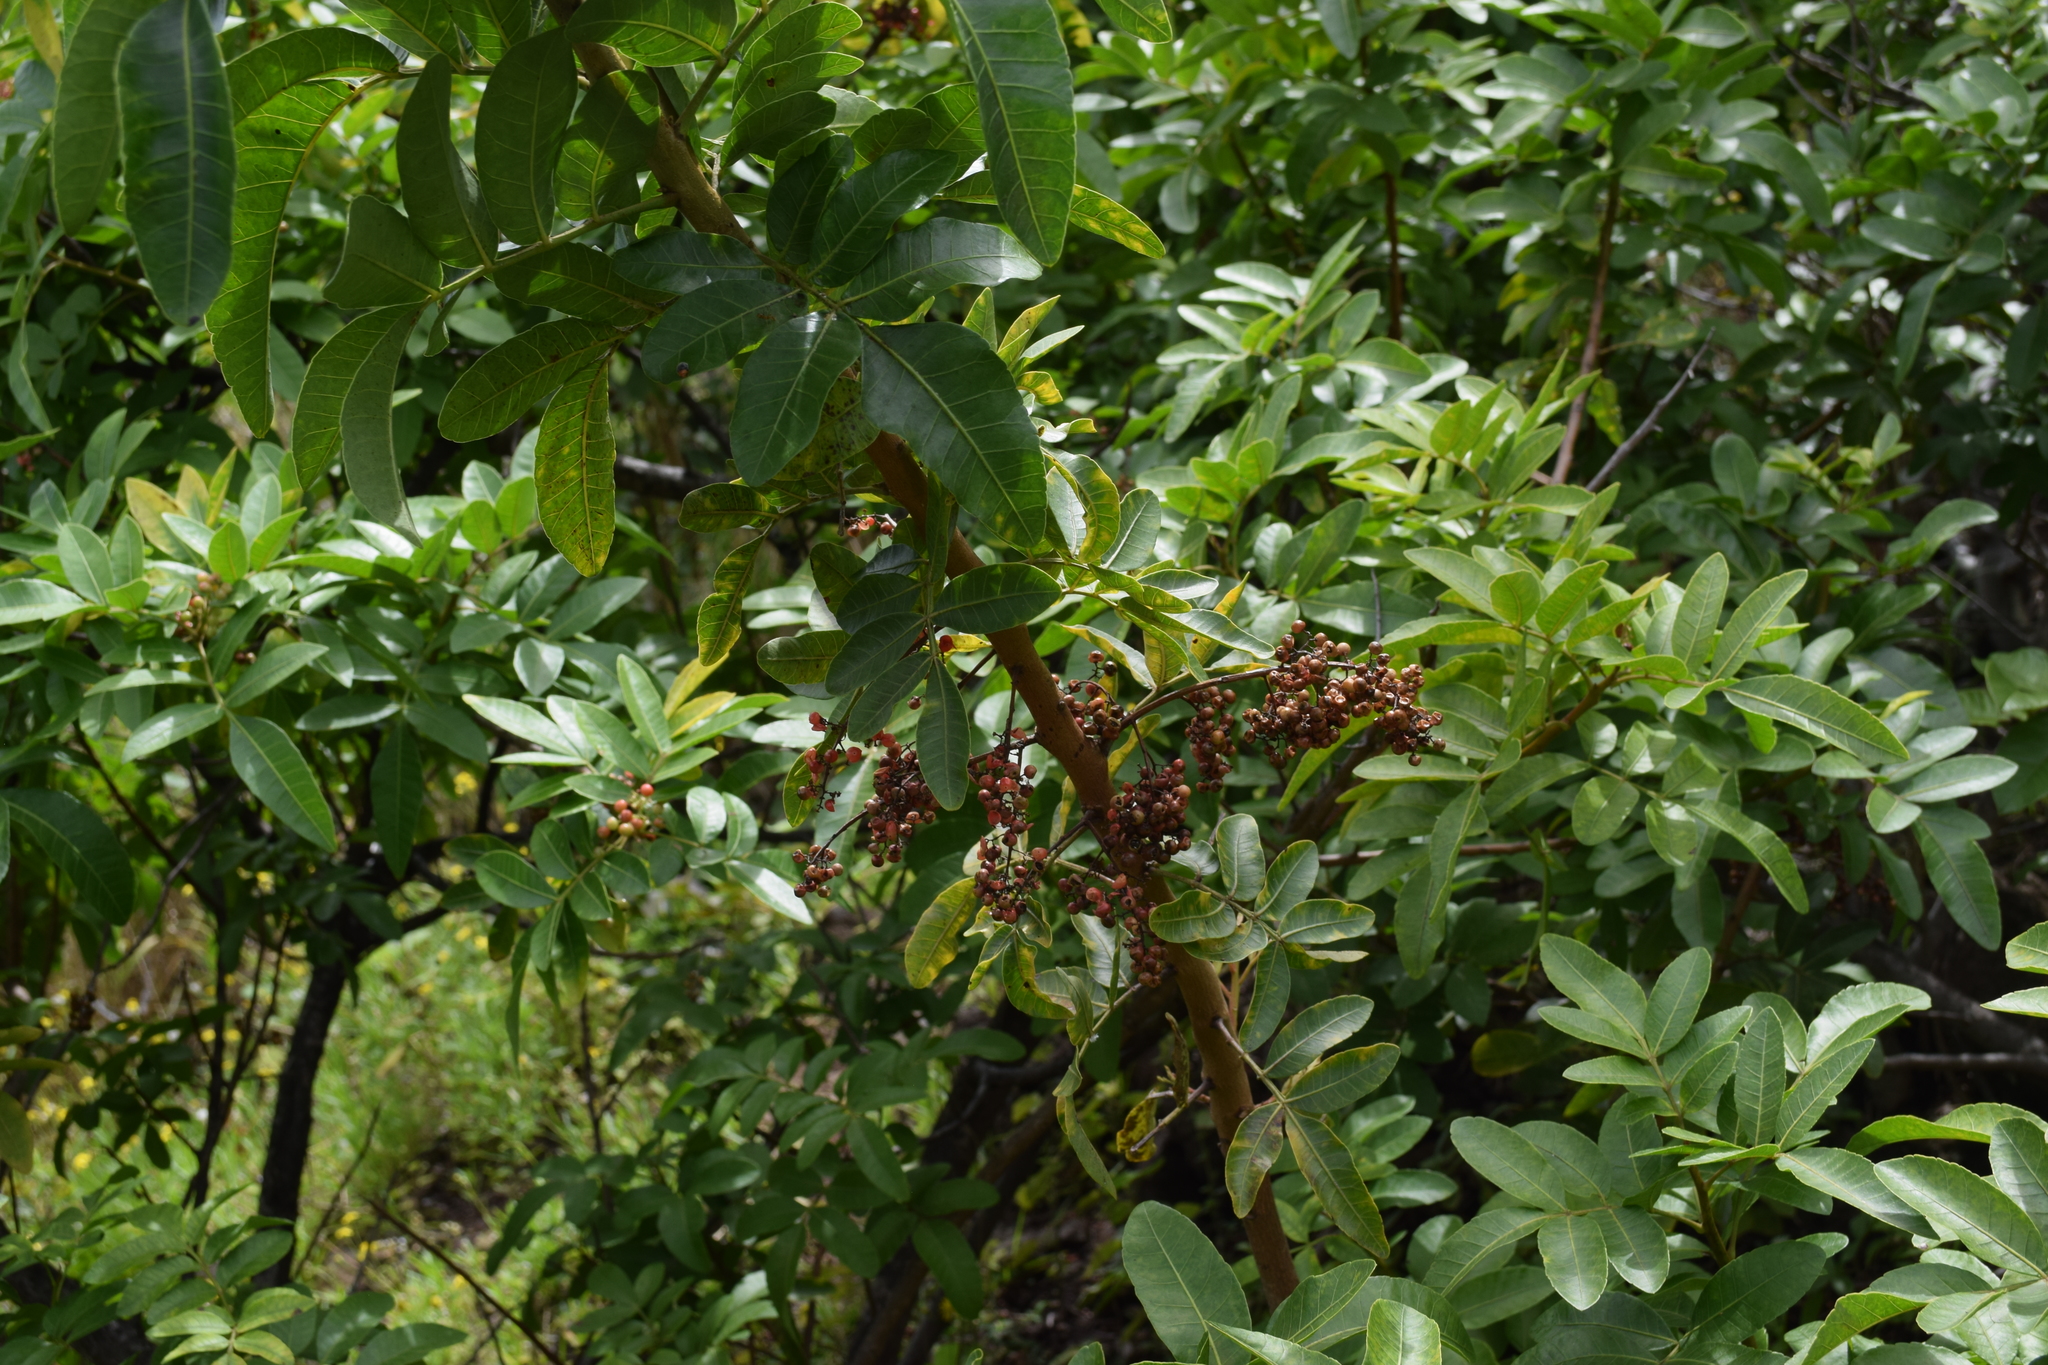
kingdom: Plantae
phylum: Tracheophyta
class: Magnoliopsida
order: Sapindales
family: Anacardiaceae
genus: Schinus
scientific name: Schinus terebinthifolia
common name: Brazilian peppertree
